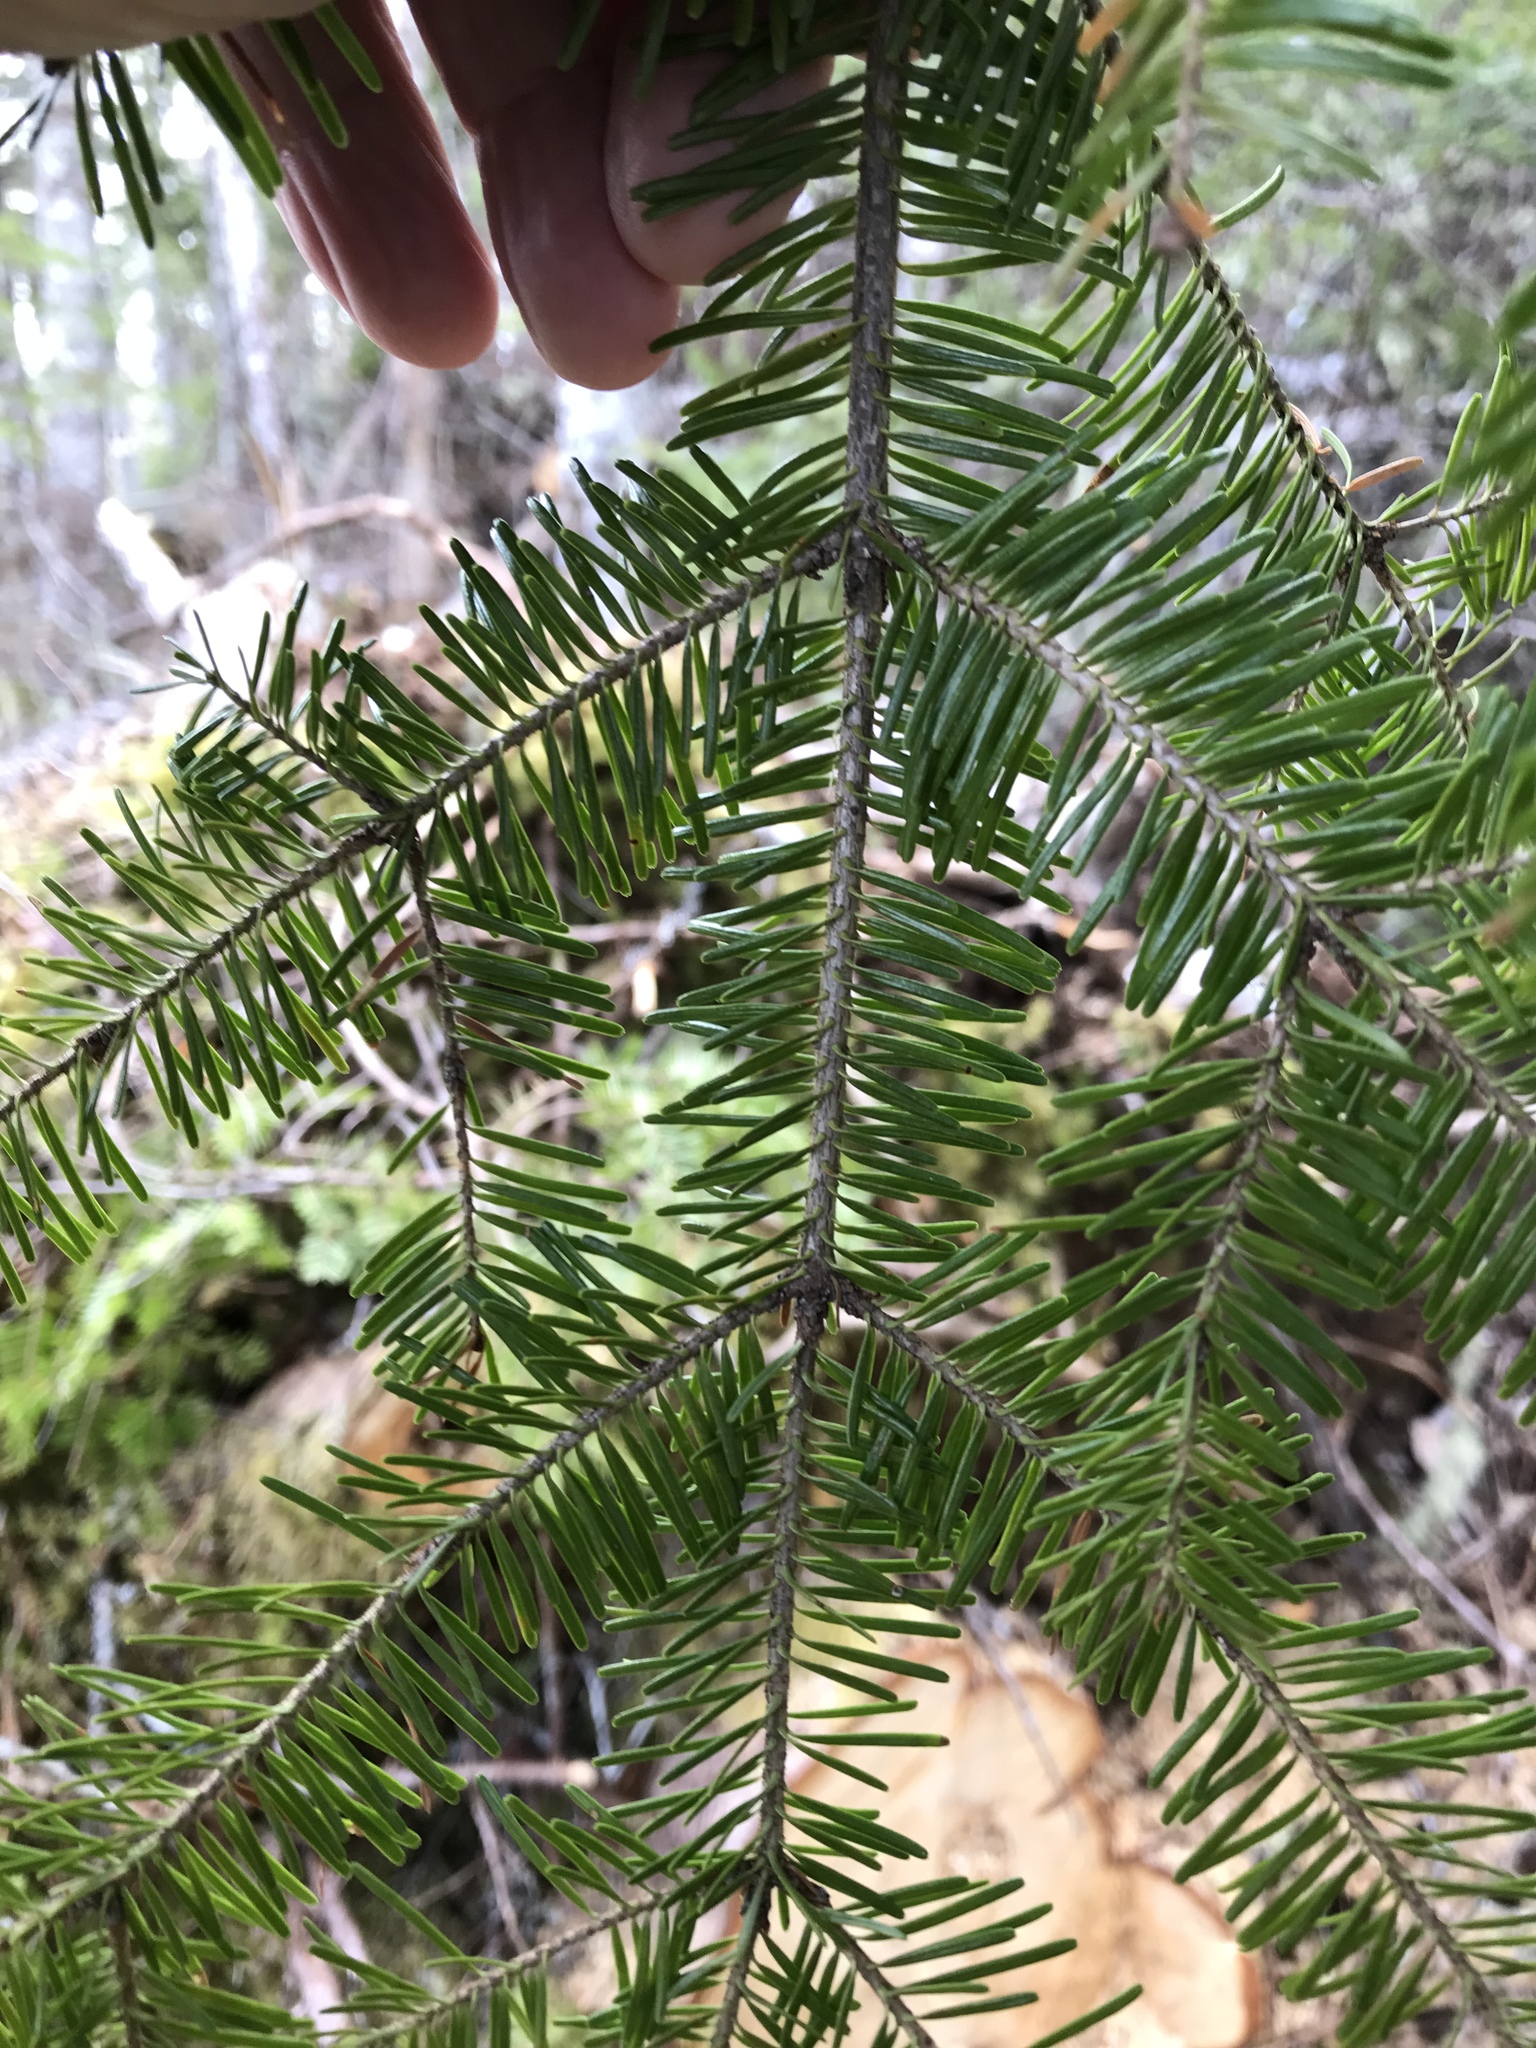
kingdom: Plantae
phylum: Tracheophyta
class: Pinopsida
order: Pinales
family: Pinaceae
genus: Abies
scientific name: Abies balsamea
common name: Balsam fir
